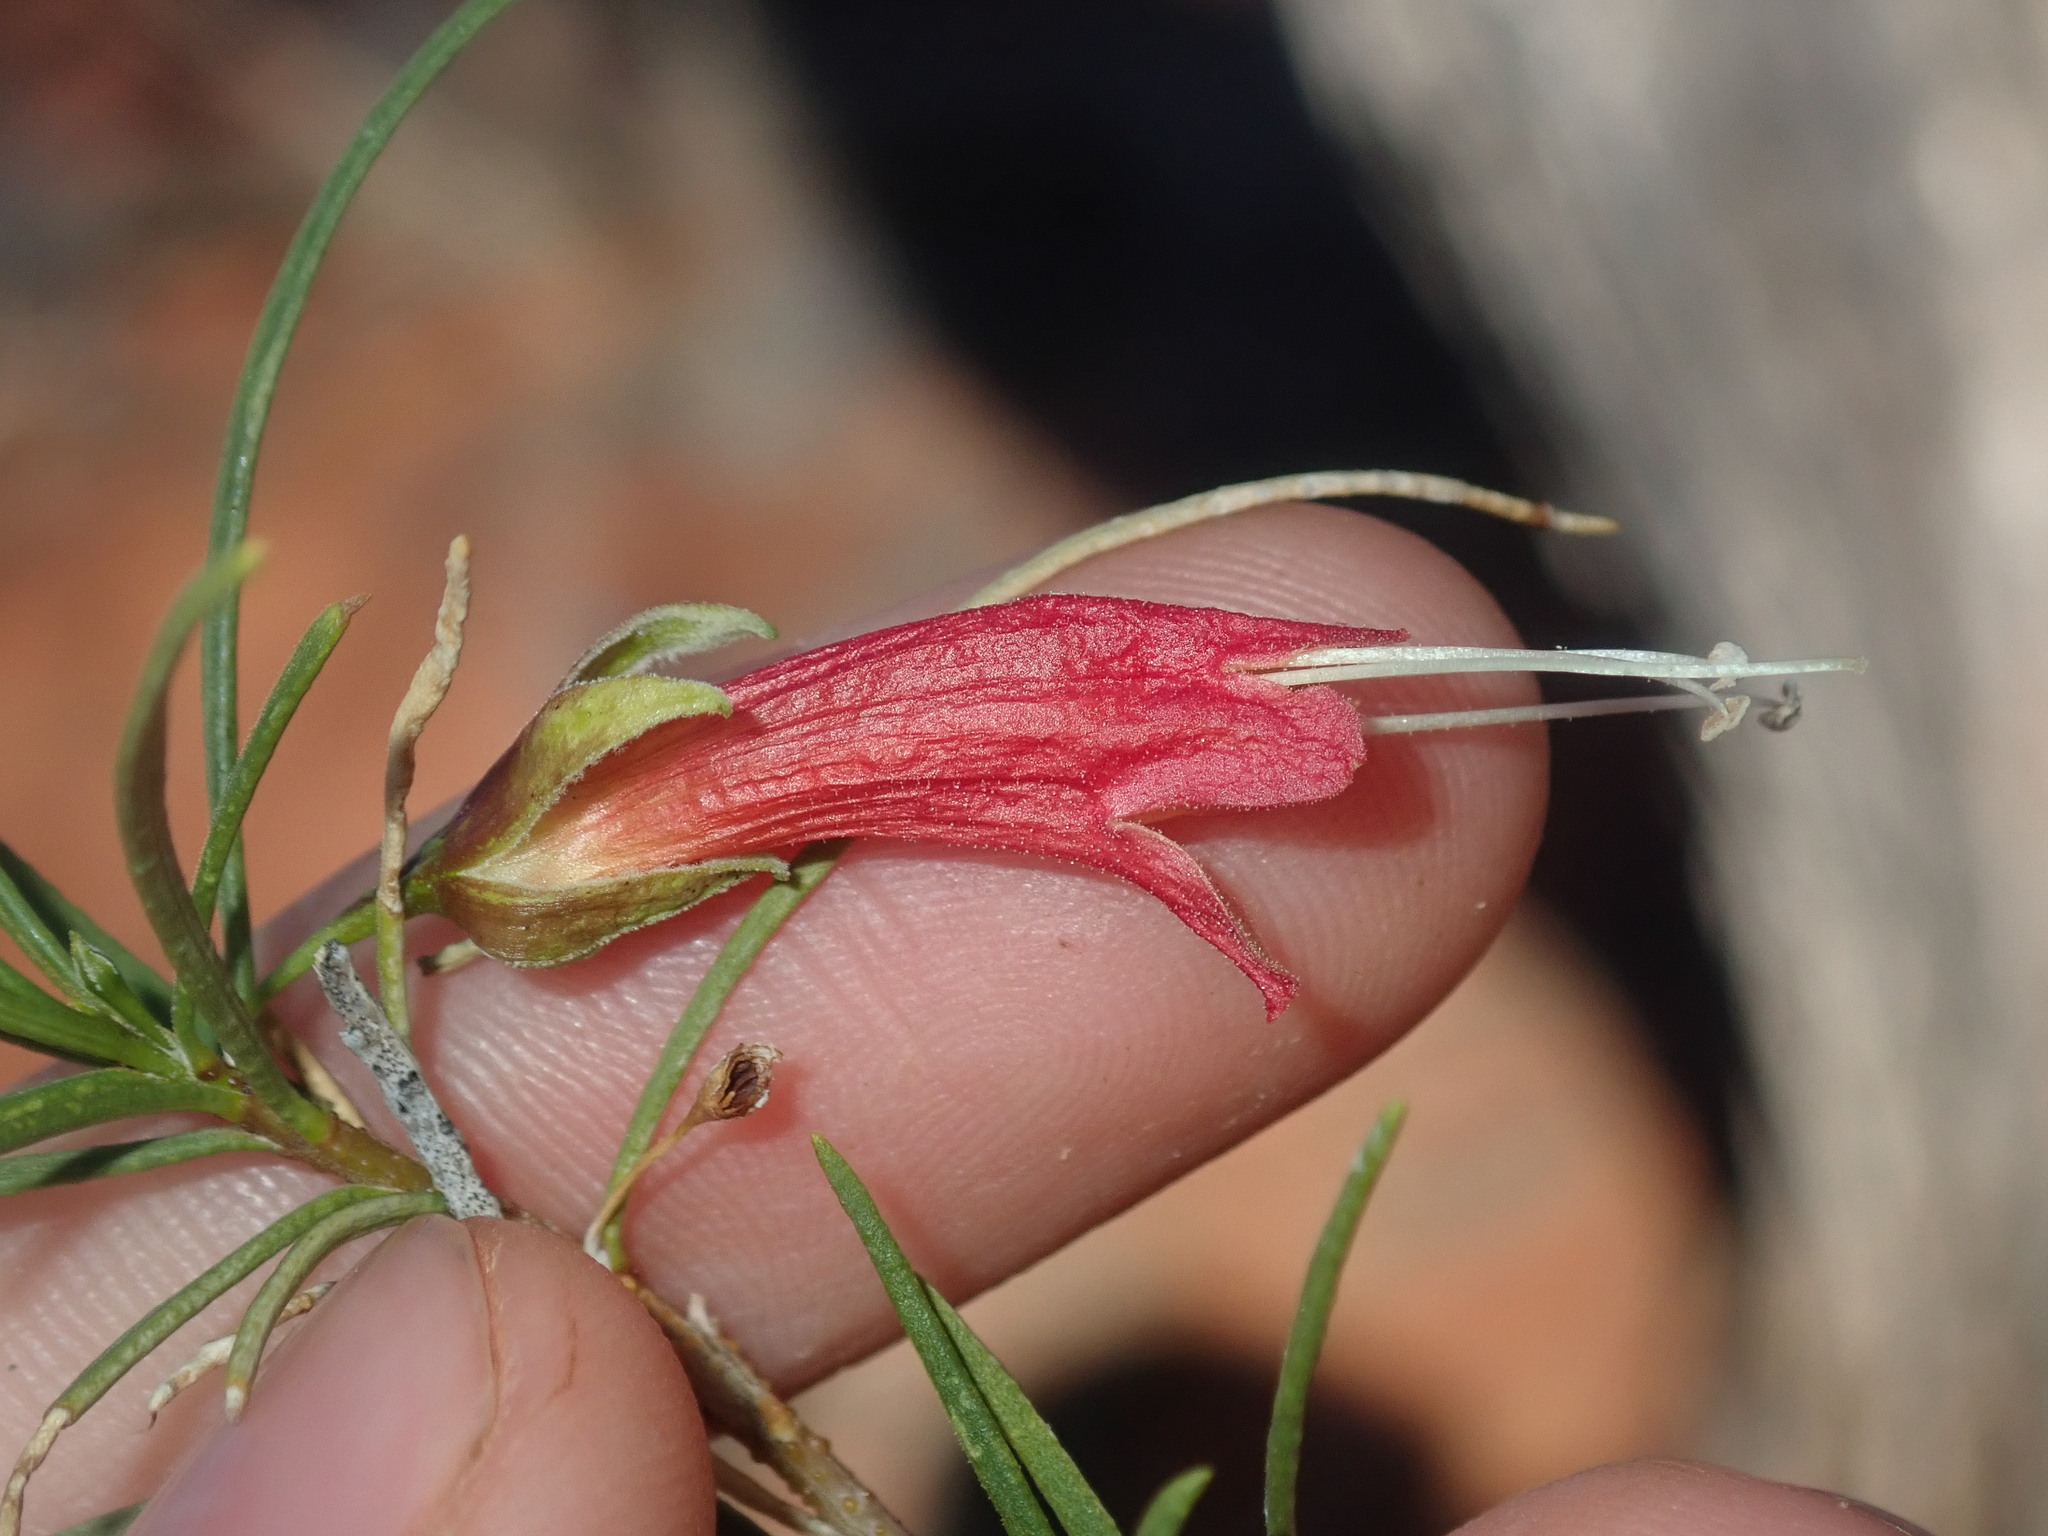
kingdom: Plantae
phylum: Tracheophyta
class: Magnoliopsida
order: Lamiales
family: Scrophulariaceae
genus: Eremophila
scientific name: Eremophila latrobei
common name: Crimson turkeybush
